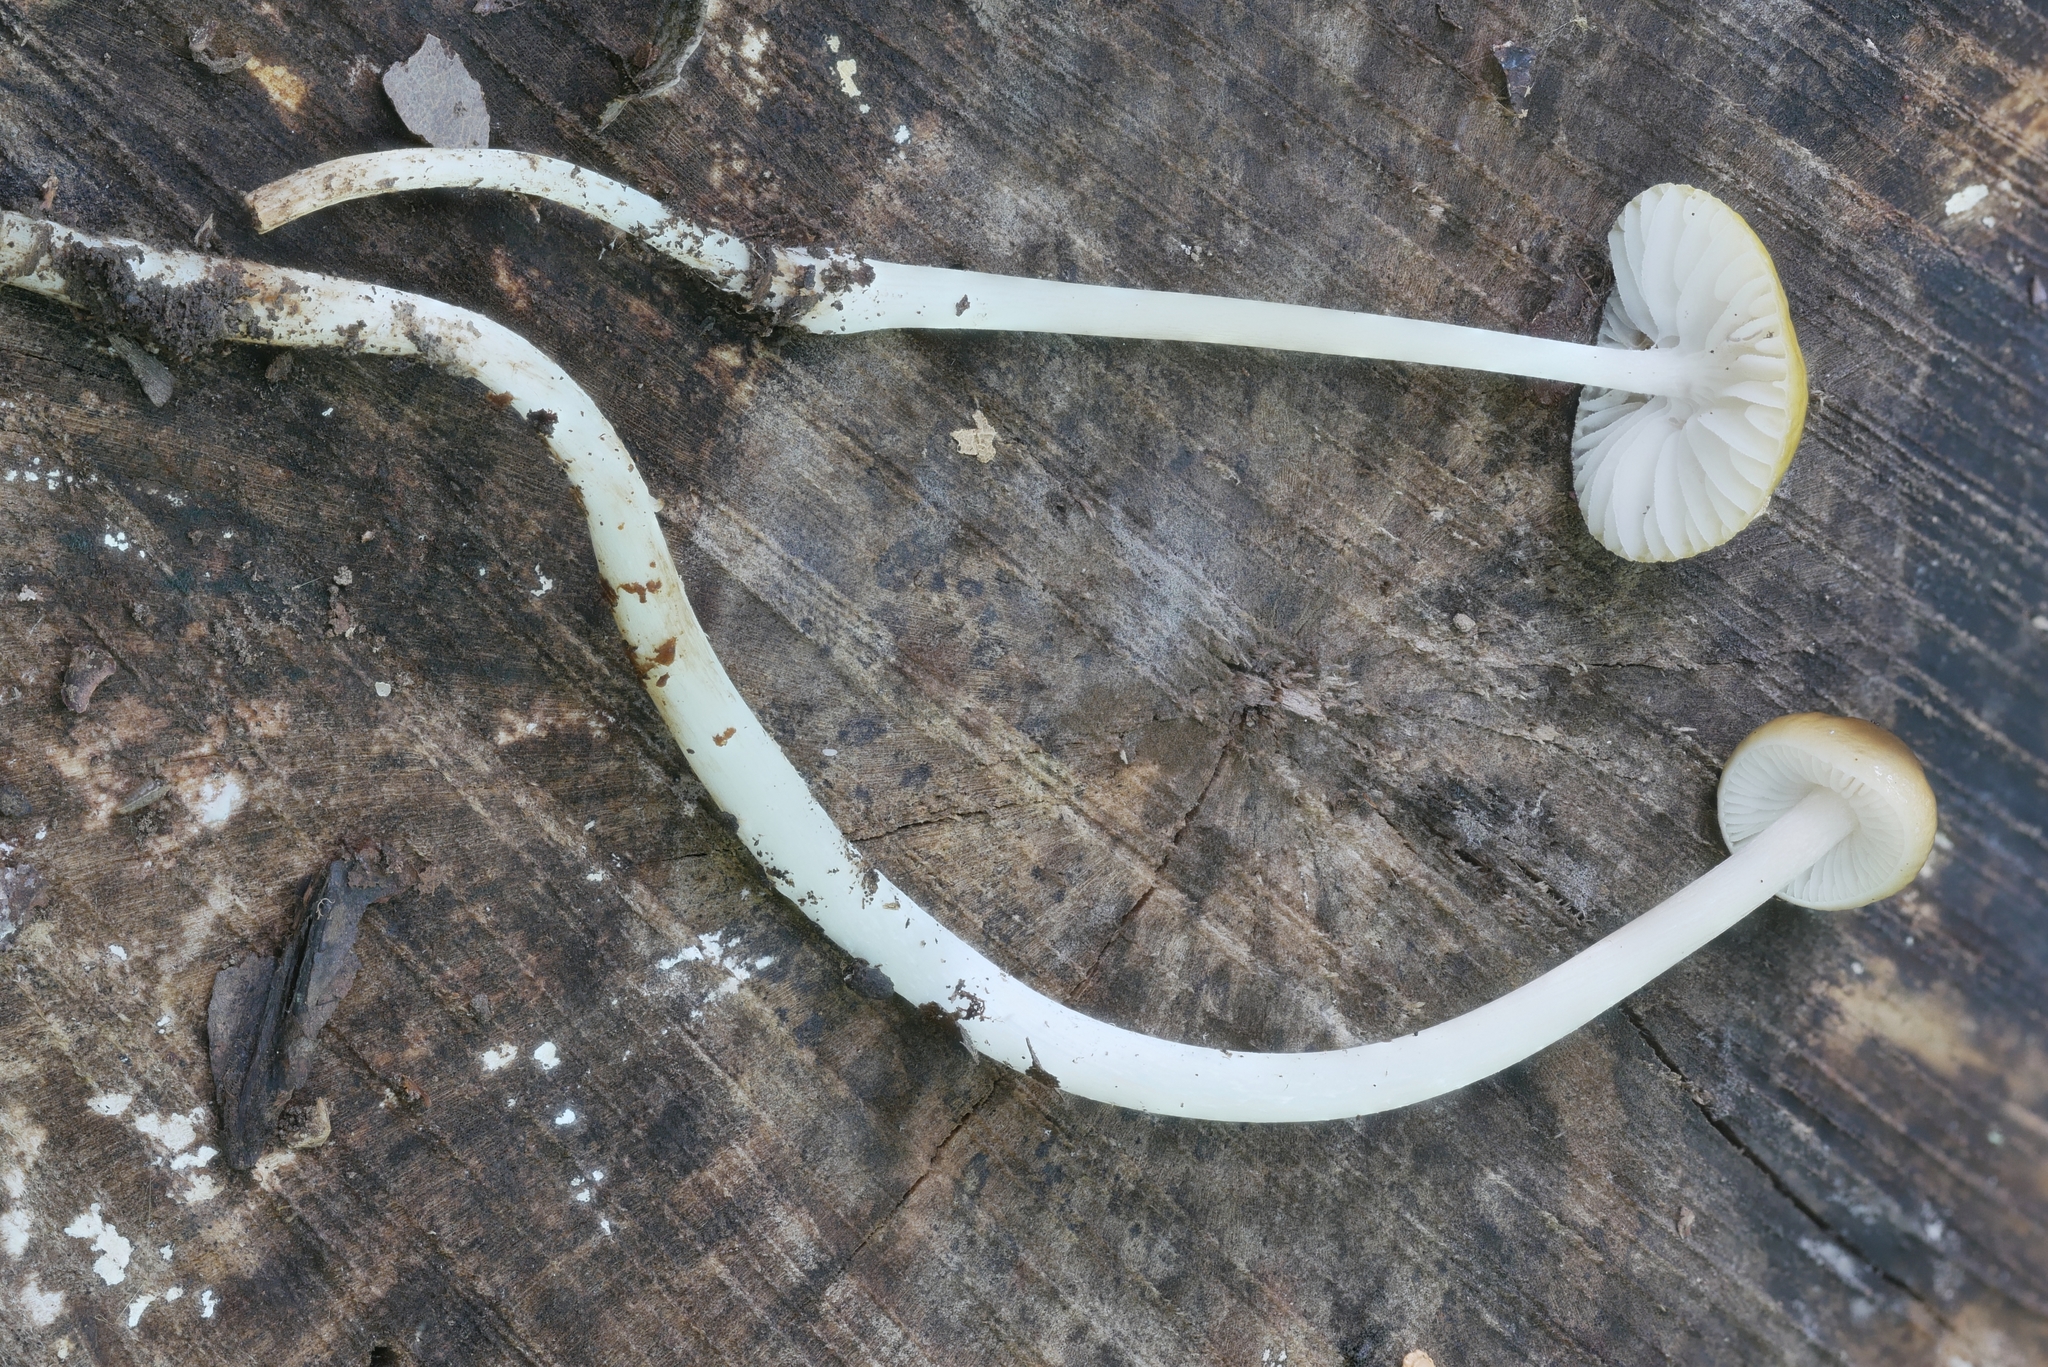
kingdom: Fungi
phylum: Basidiomycota
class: Agaricomycetes
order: Agaricales
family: Physalacriaceae
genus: Hymenopellis
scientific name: Hymenopellis incognita
